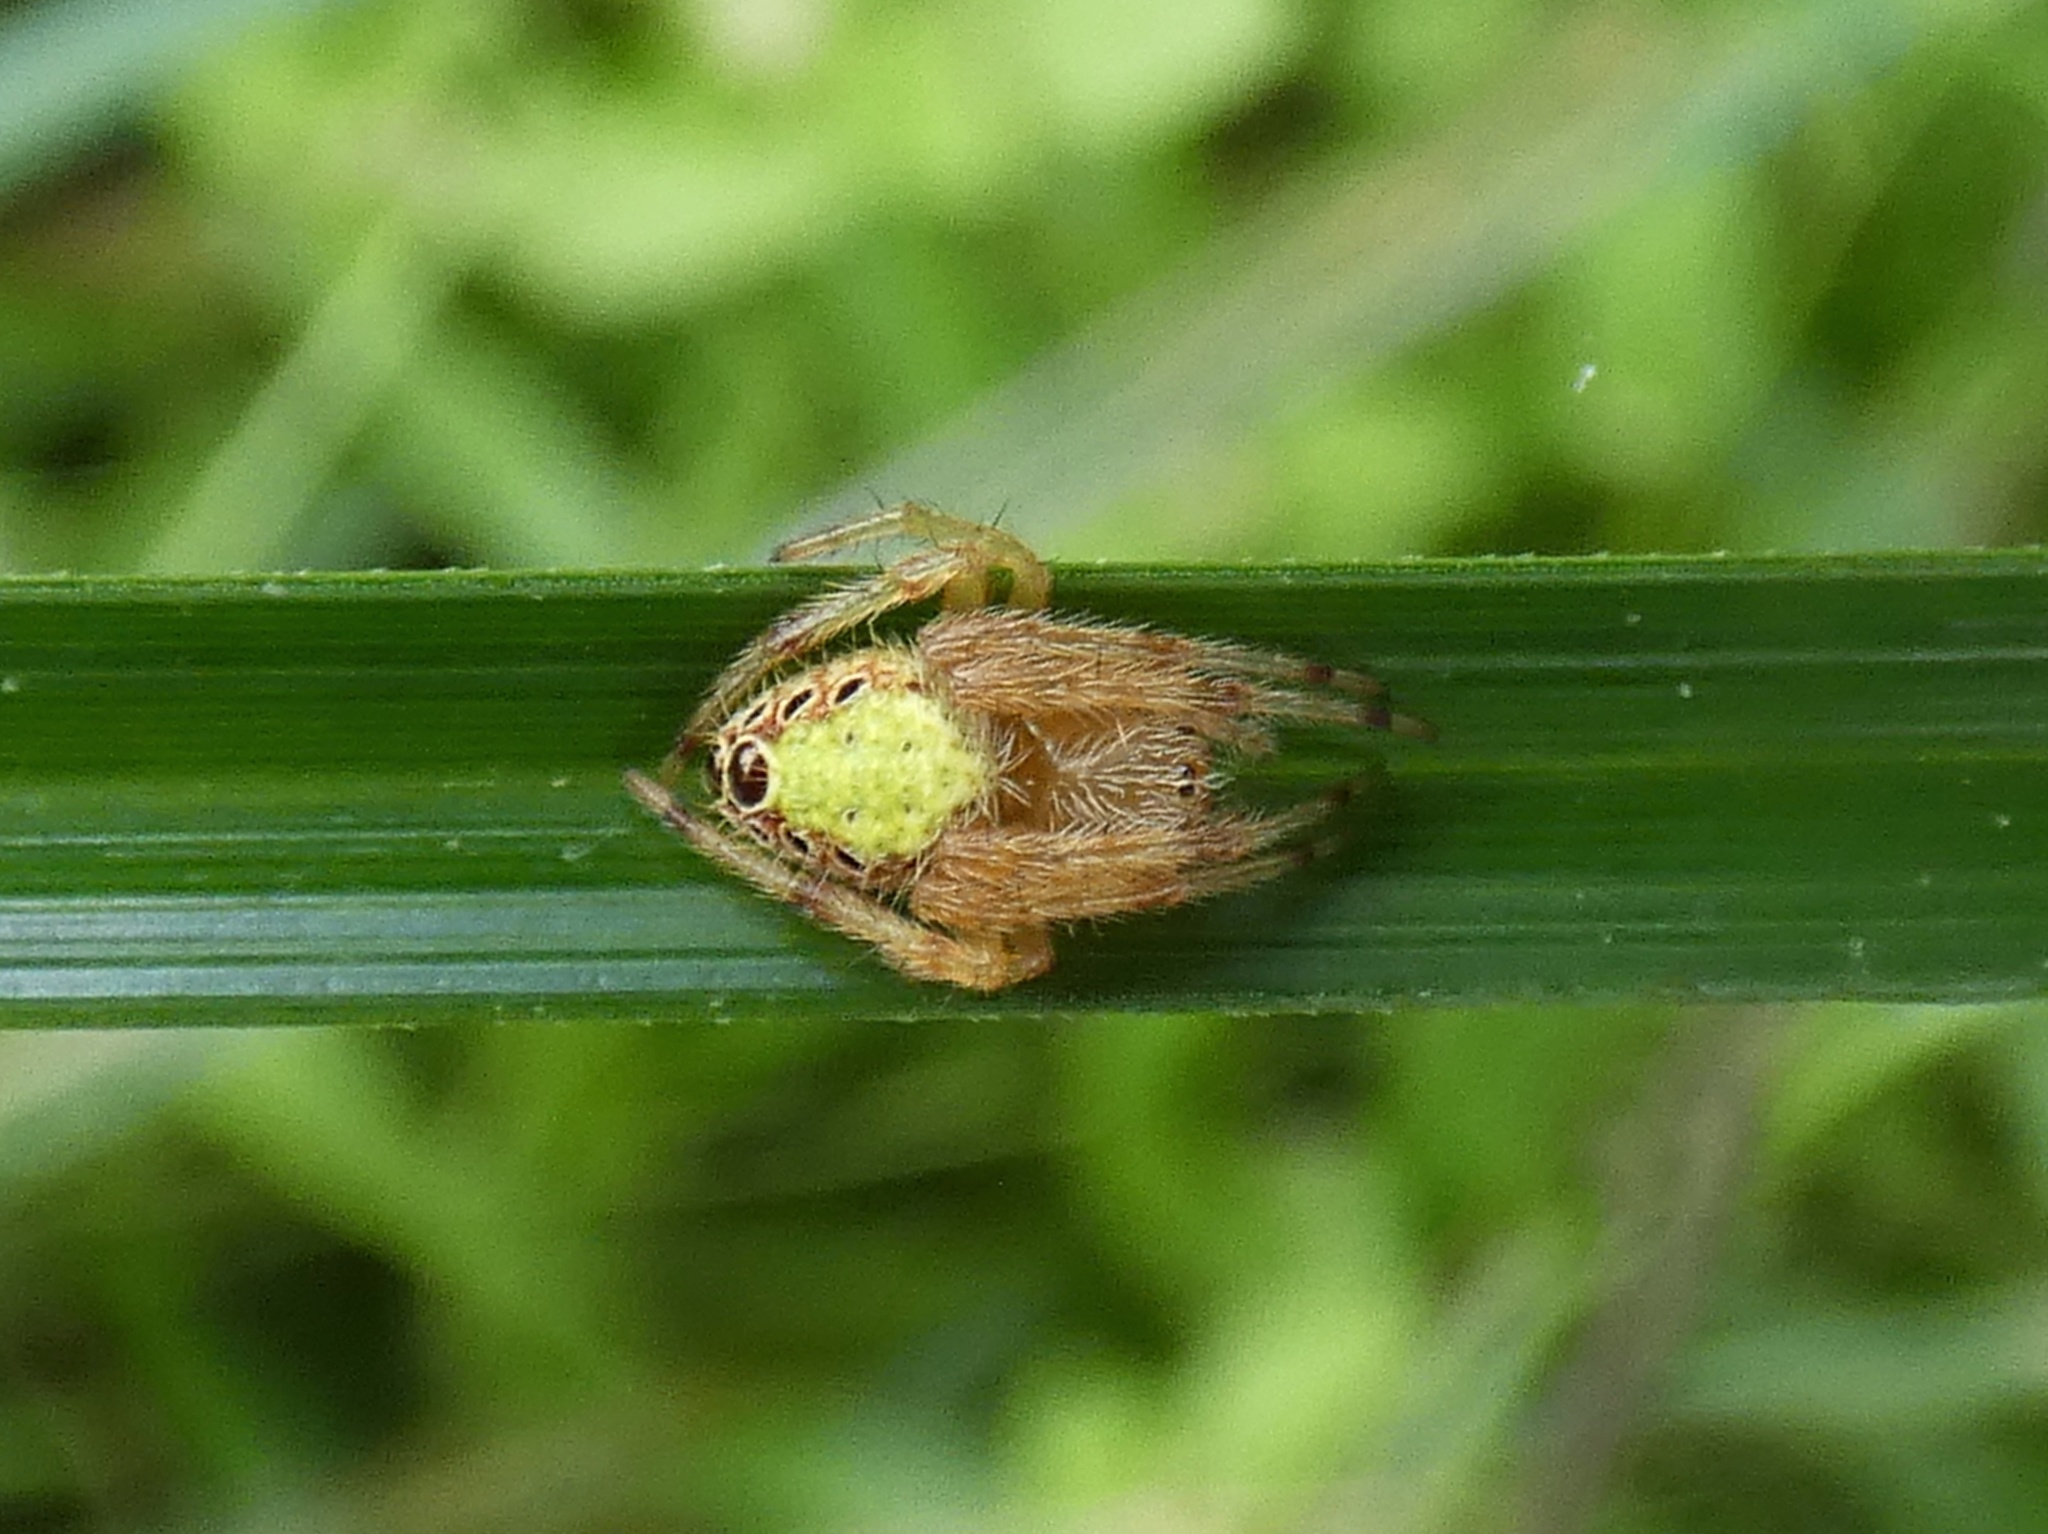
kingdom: Animalia
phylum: Arthropoda
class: Arachnida
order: Araneae
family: Araneidae
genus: Eriophora
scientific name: Eriophora ravilla
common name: Orb weavers
